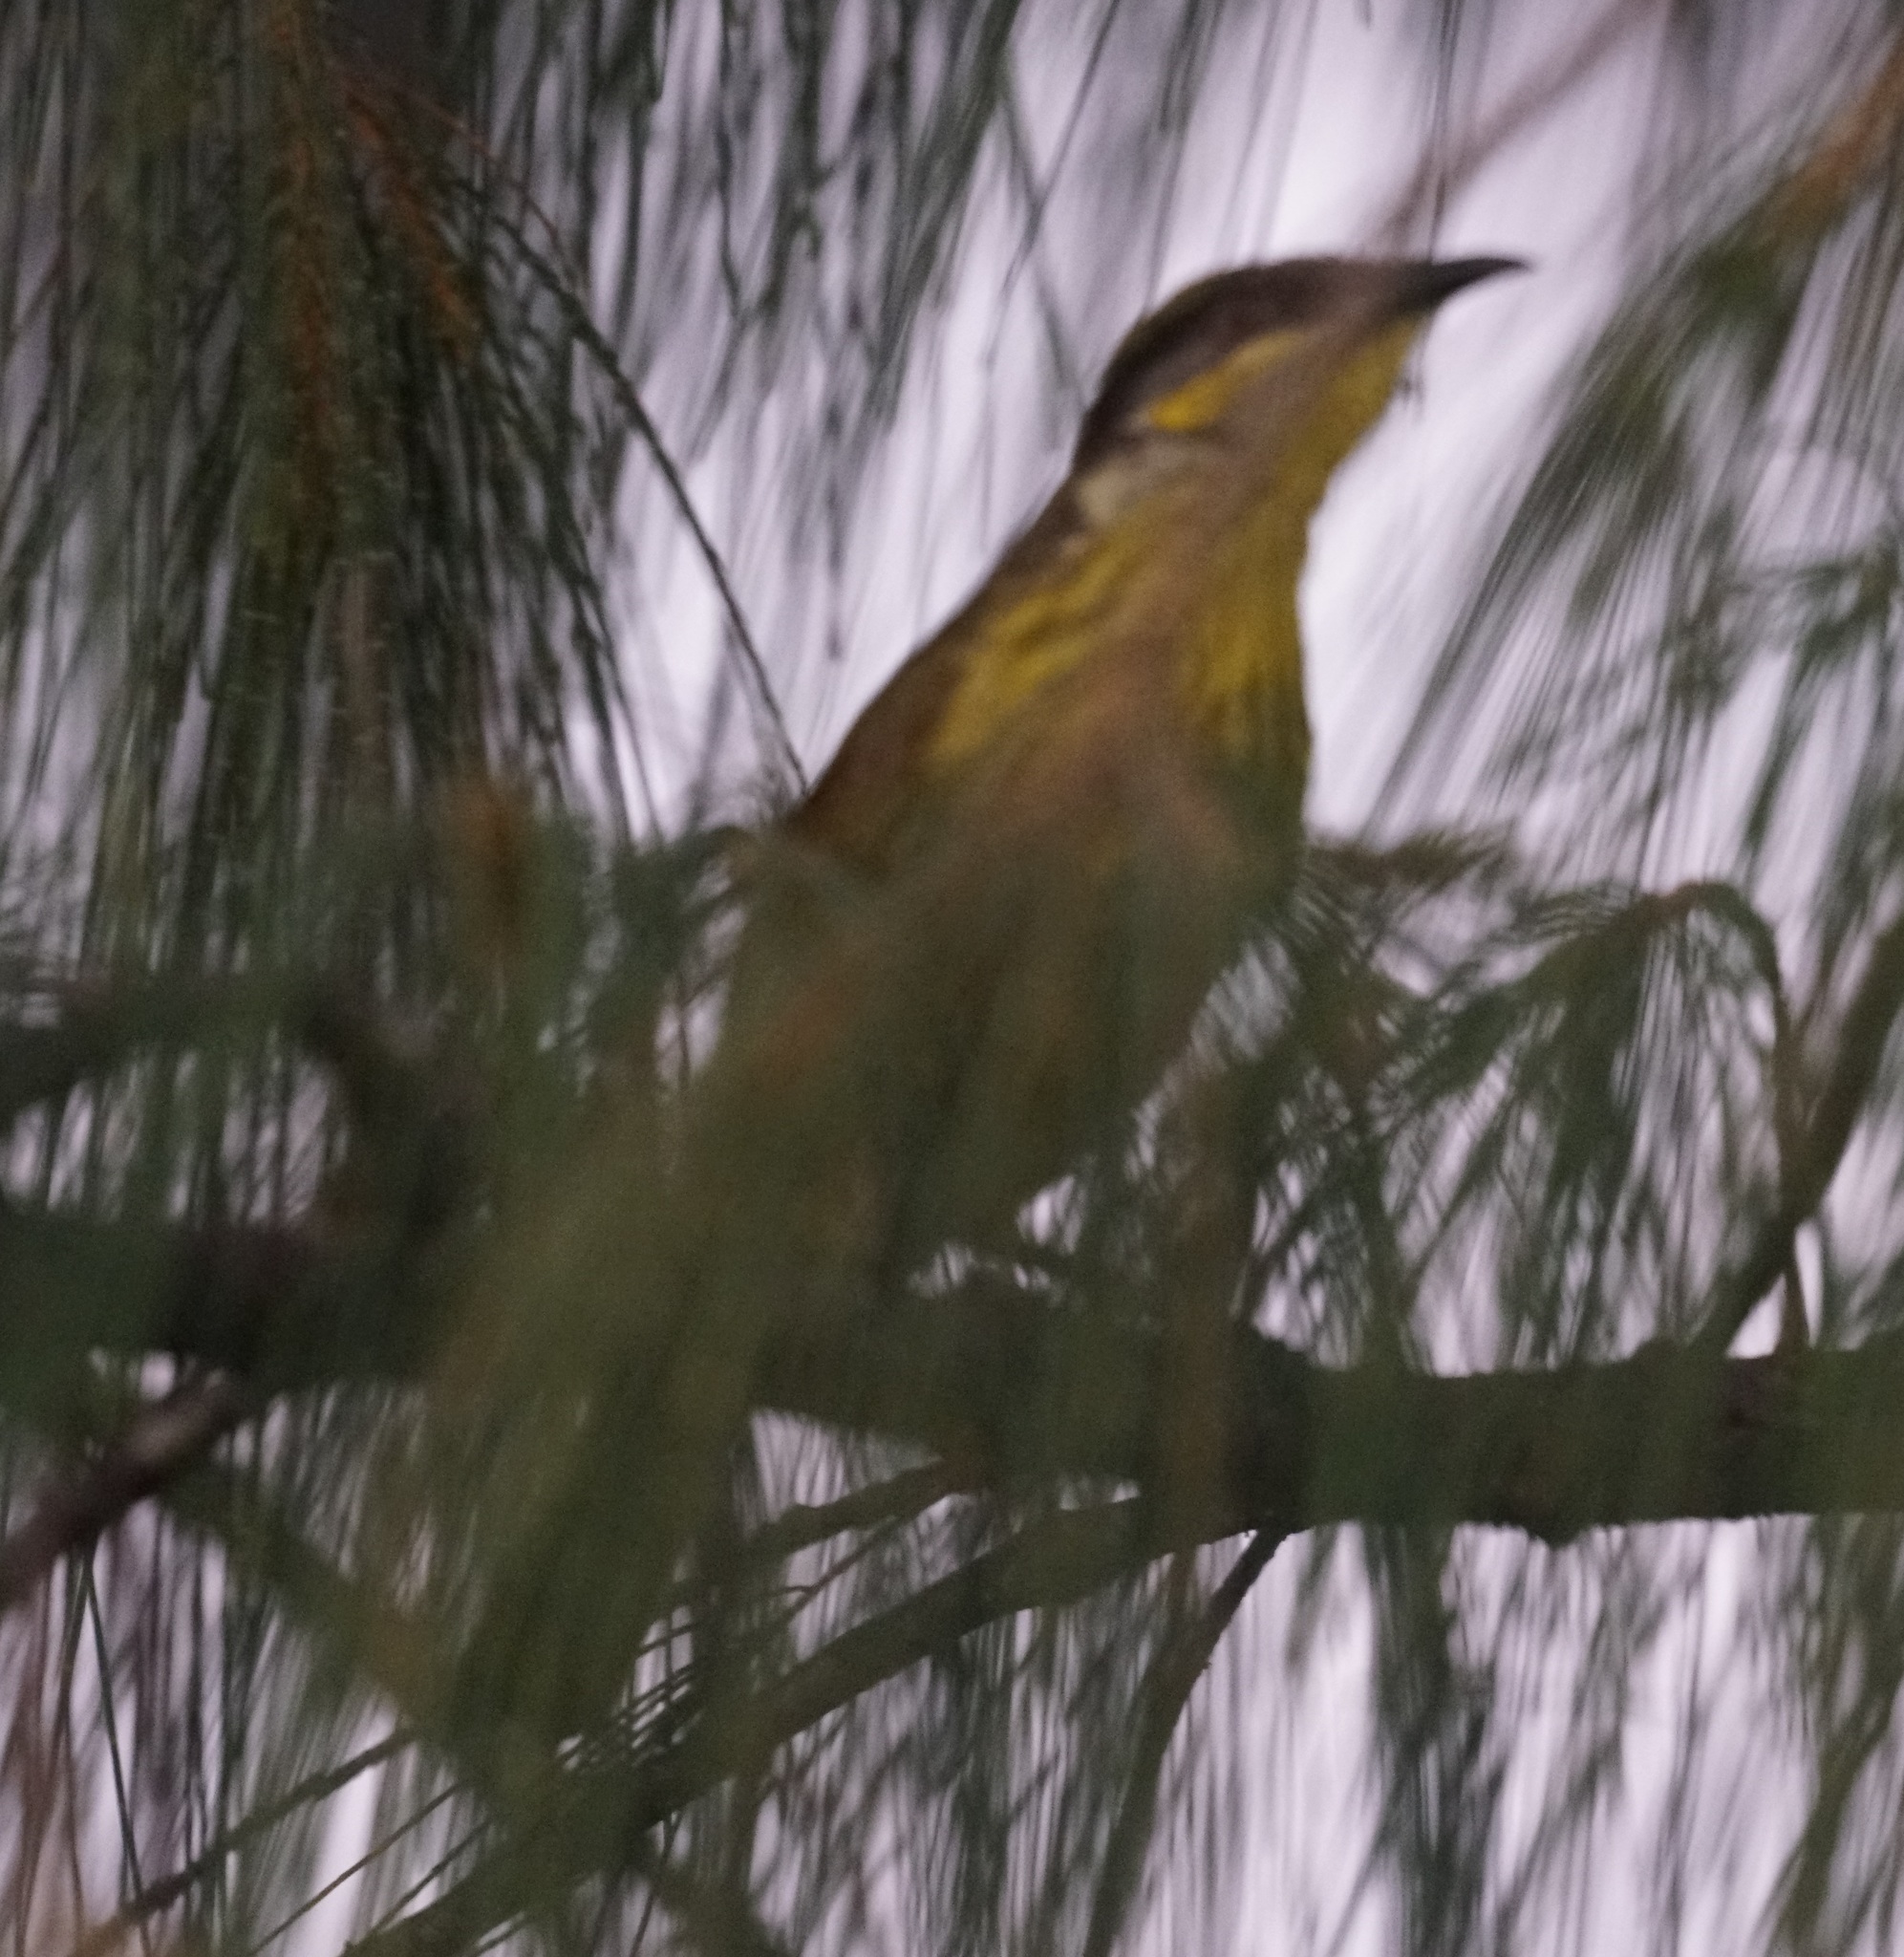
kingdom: Animalia
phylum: Chordata
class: Aves
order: Passeriformes
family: Meliphagidae
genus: Gavicalis
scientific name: Gavicalis versicolor
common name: Varied honeyeater
